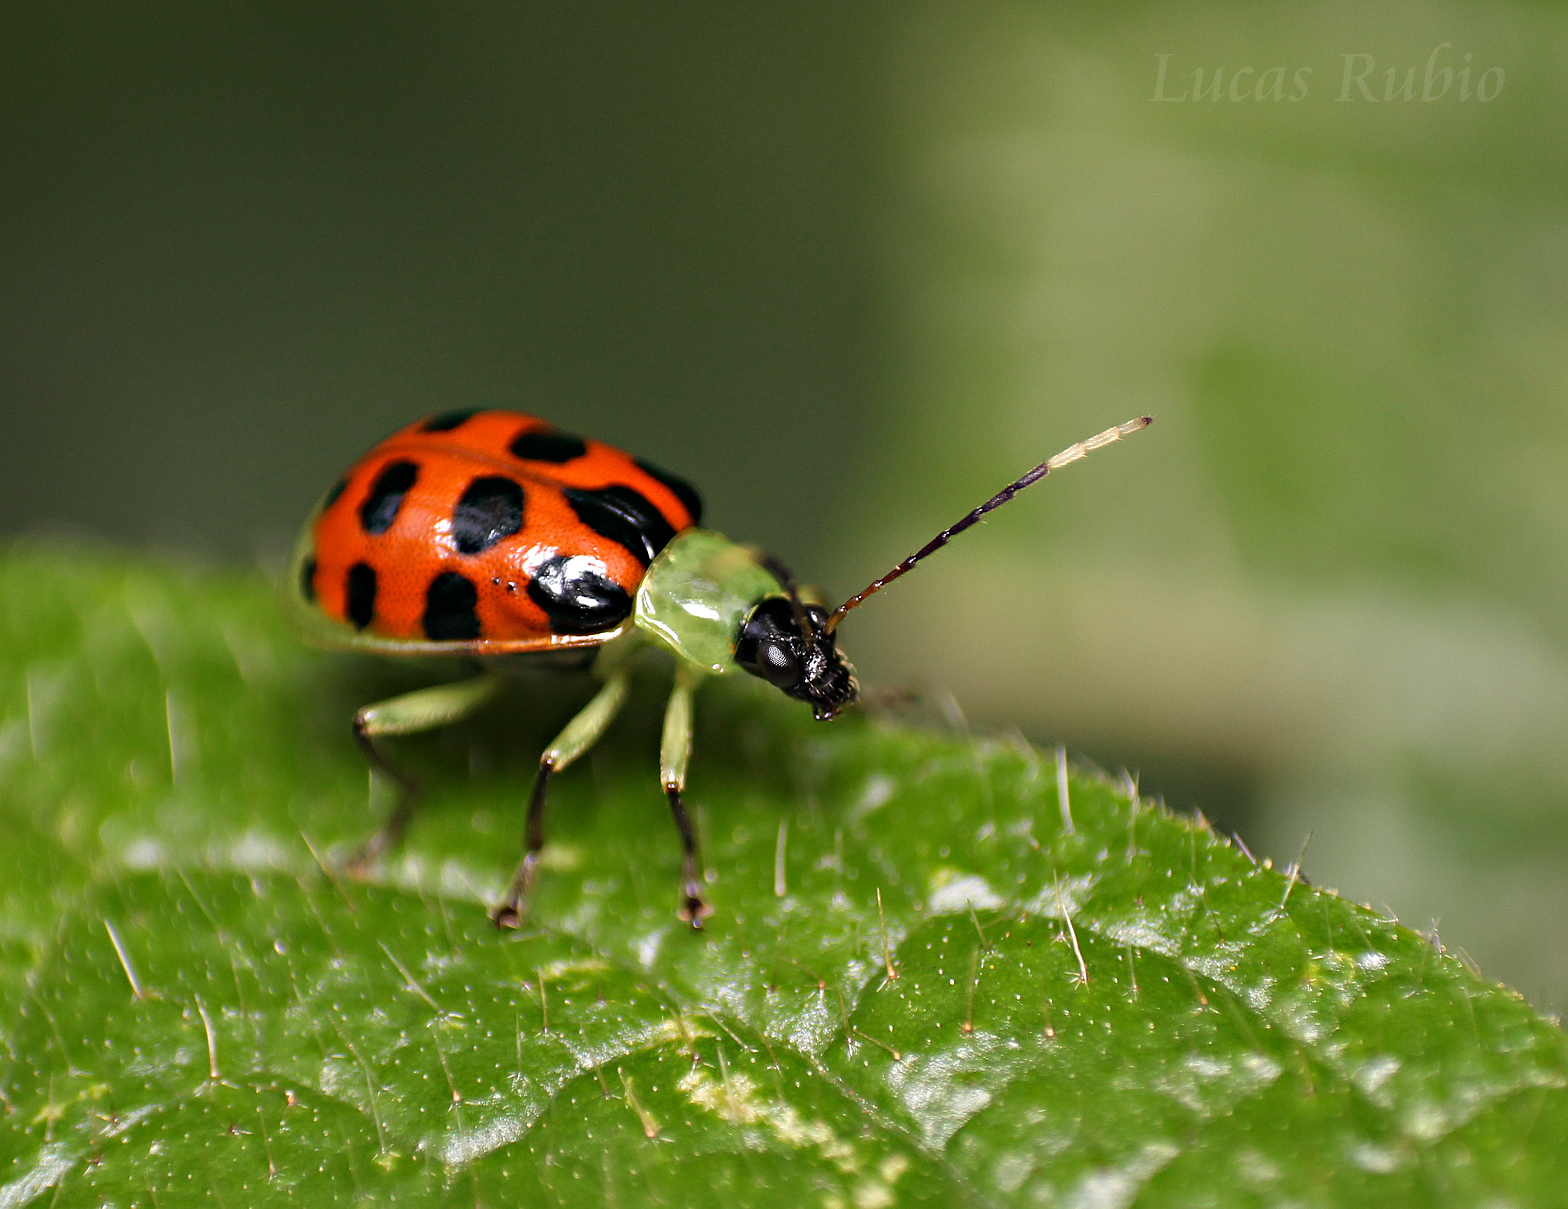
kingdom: Animalia
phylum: Arthropoda
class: Insecta
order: Coleoptera
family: Chrysomelidae
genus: Diabrotica
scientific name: Diabrotica limitata
